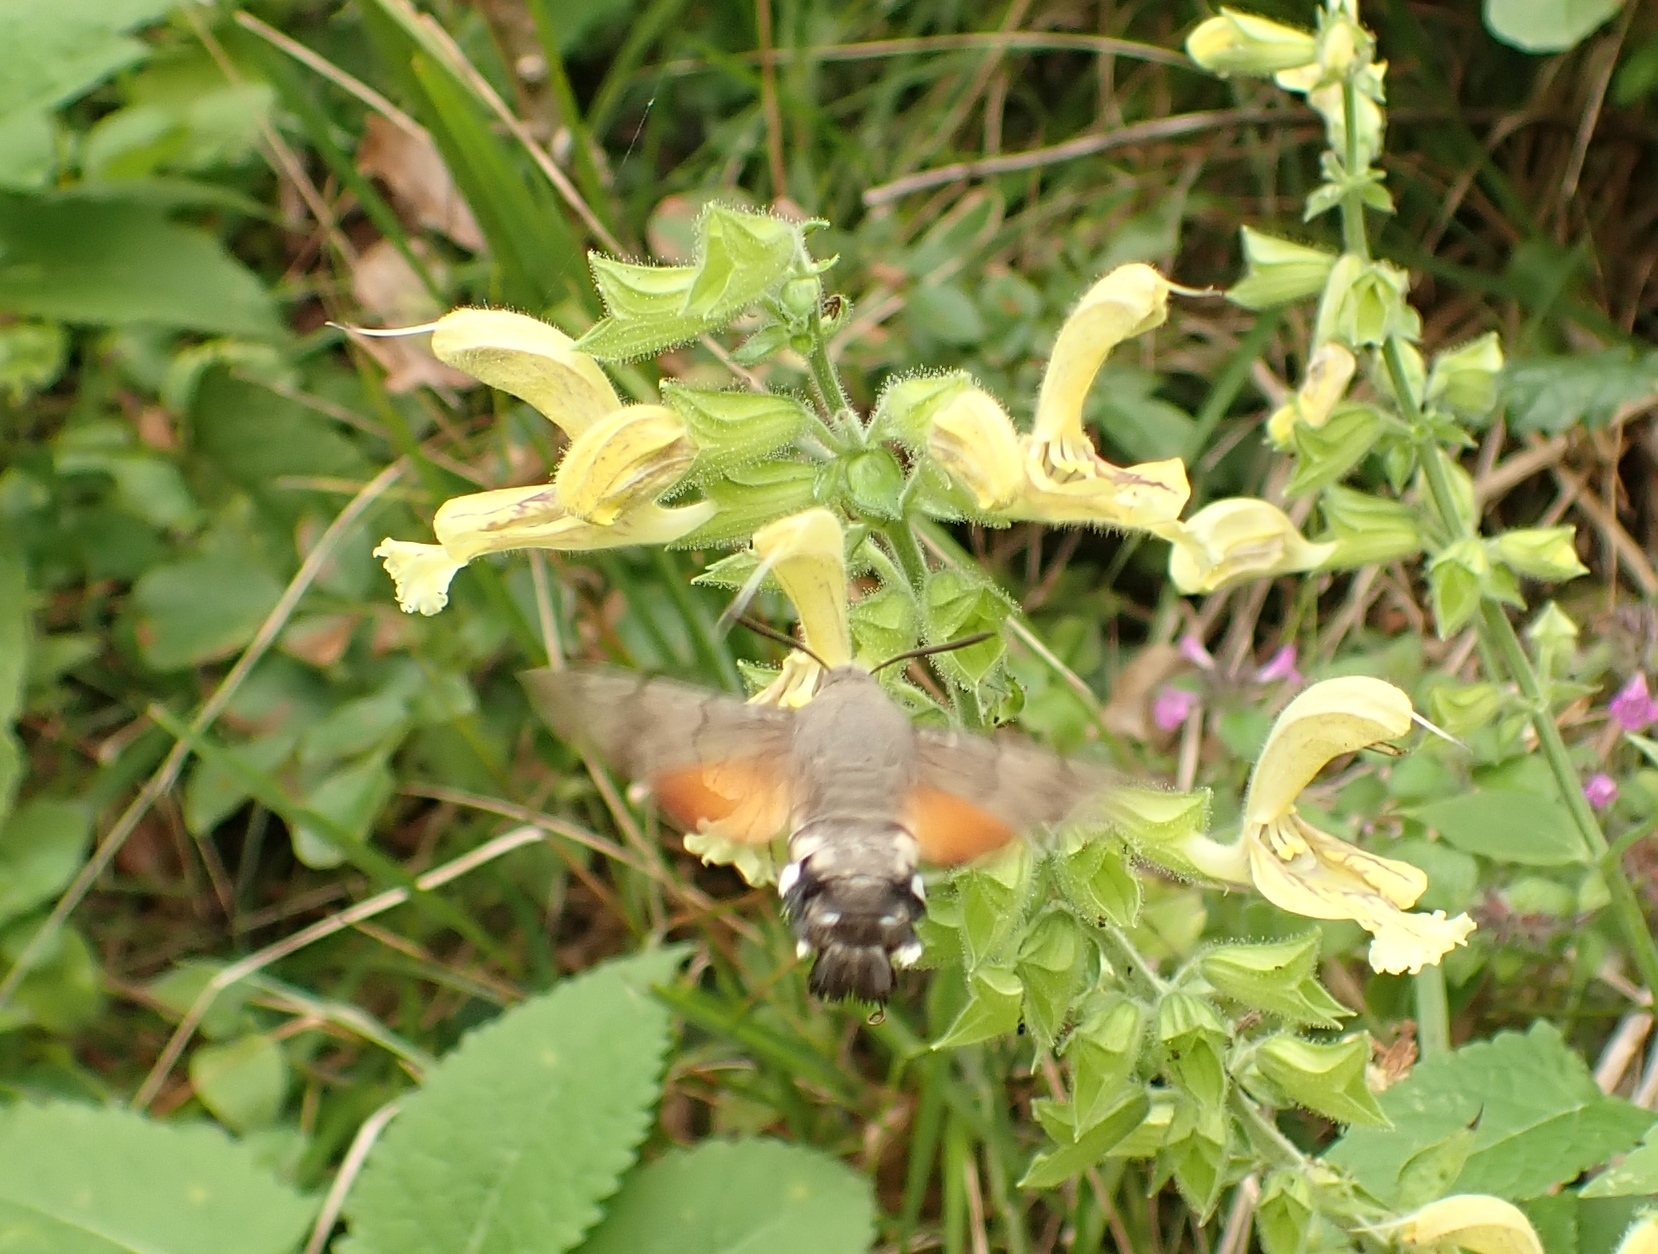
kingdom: Animalia
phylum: Arthropoda
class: Insecta
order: Lepidoptera
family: Sphingidae
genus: Macroglossum
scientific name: Macroglossum stellatarum
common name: Humming-bird hawk-moth
